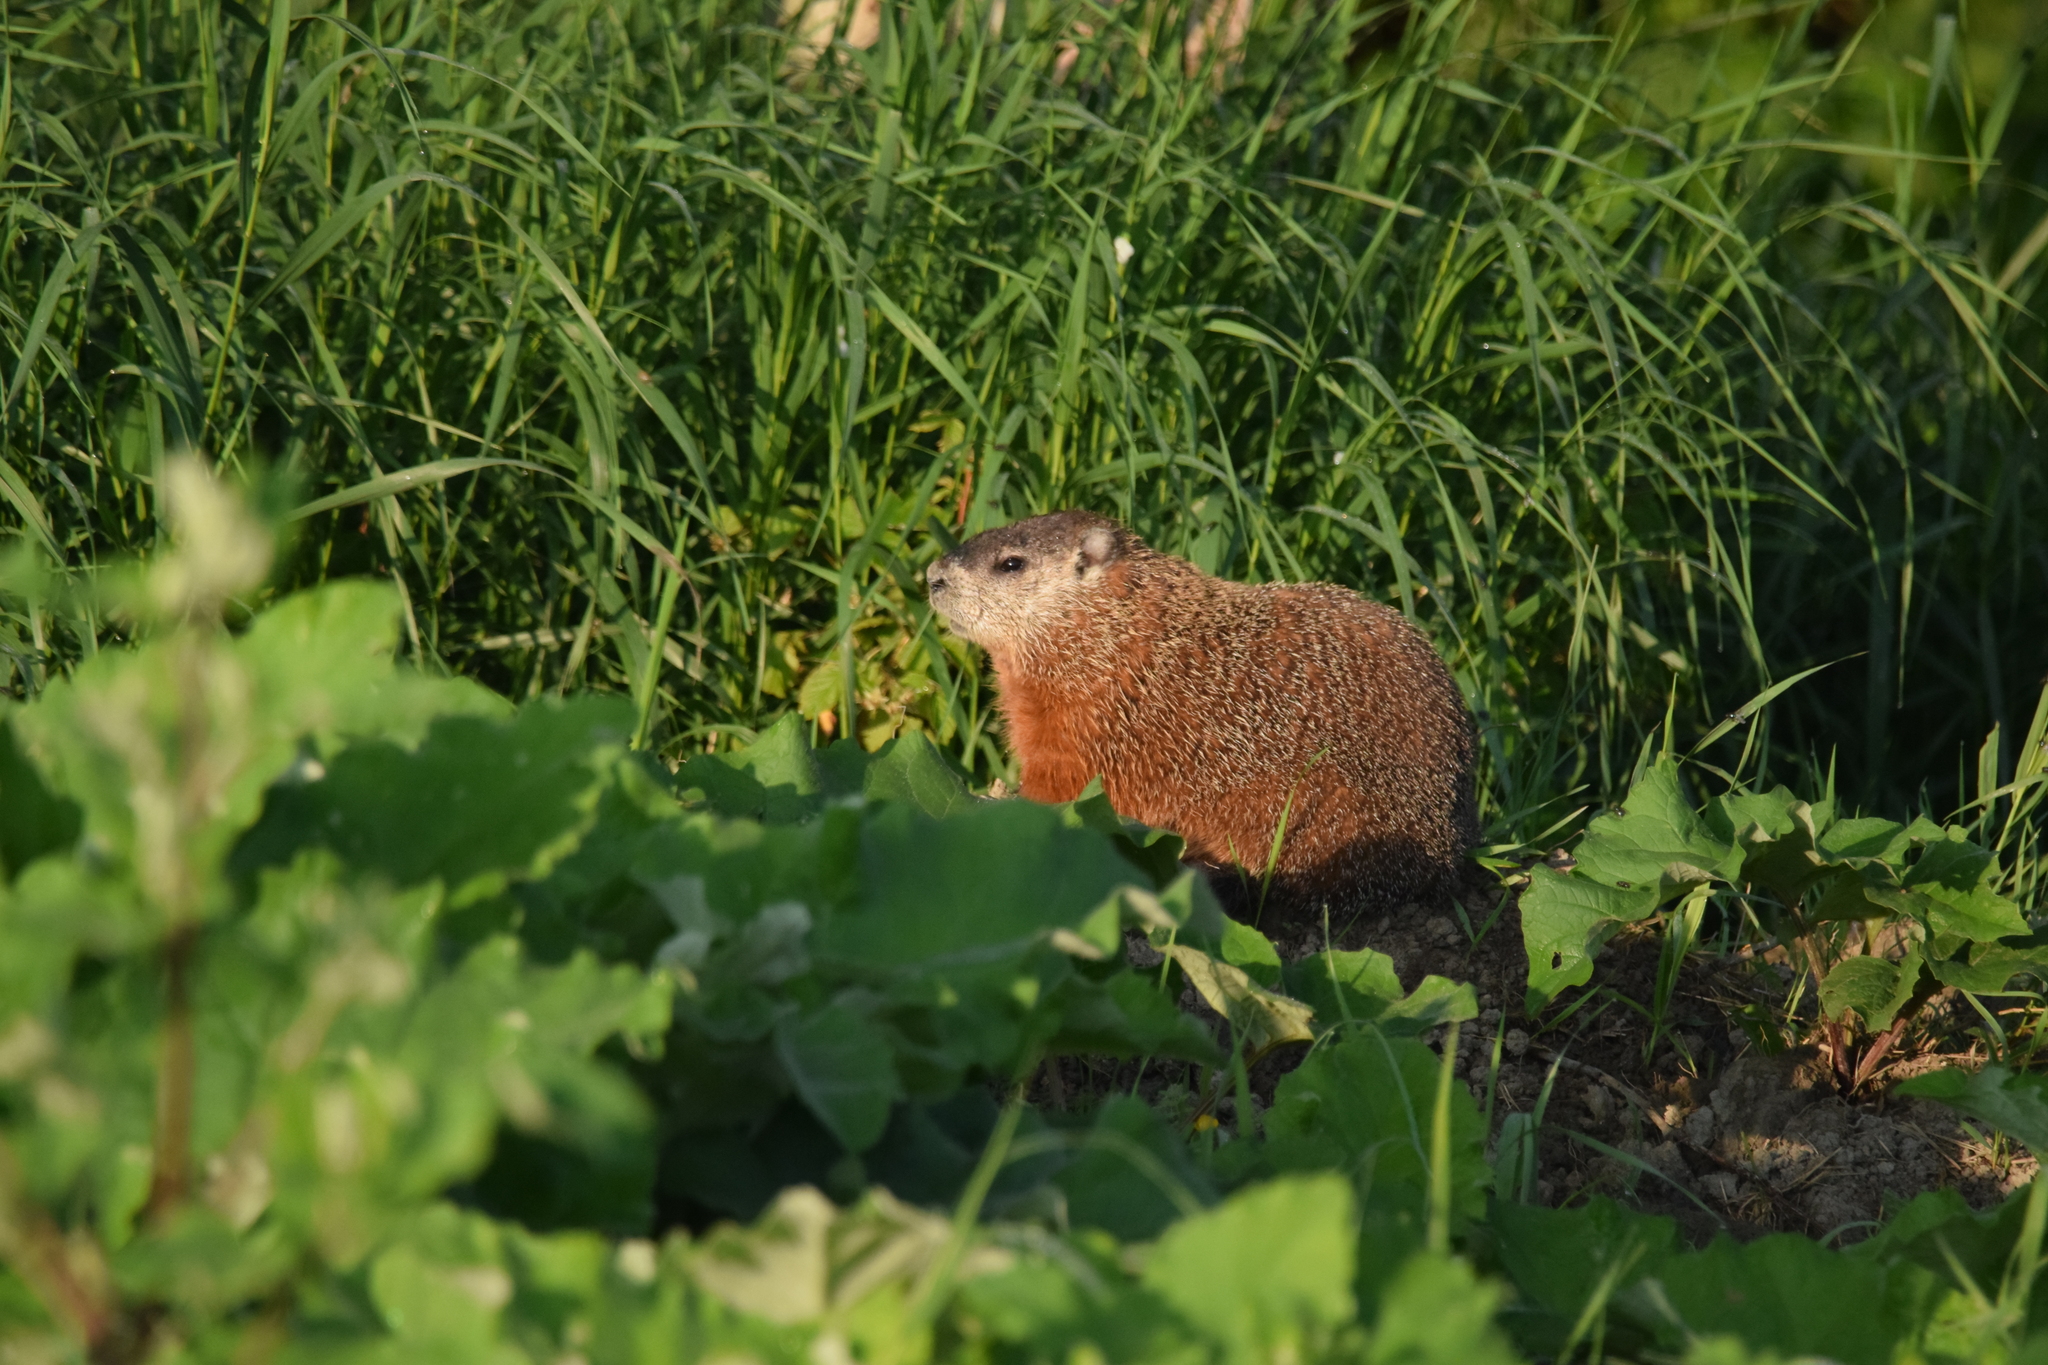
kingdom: Animalia
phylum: Chordata
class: Mammalia
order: Rodentia
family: Sciuridae
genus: Marmota
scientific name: Marmota monax
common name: Groundhog
